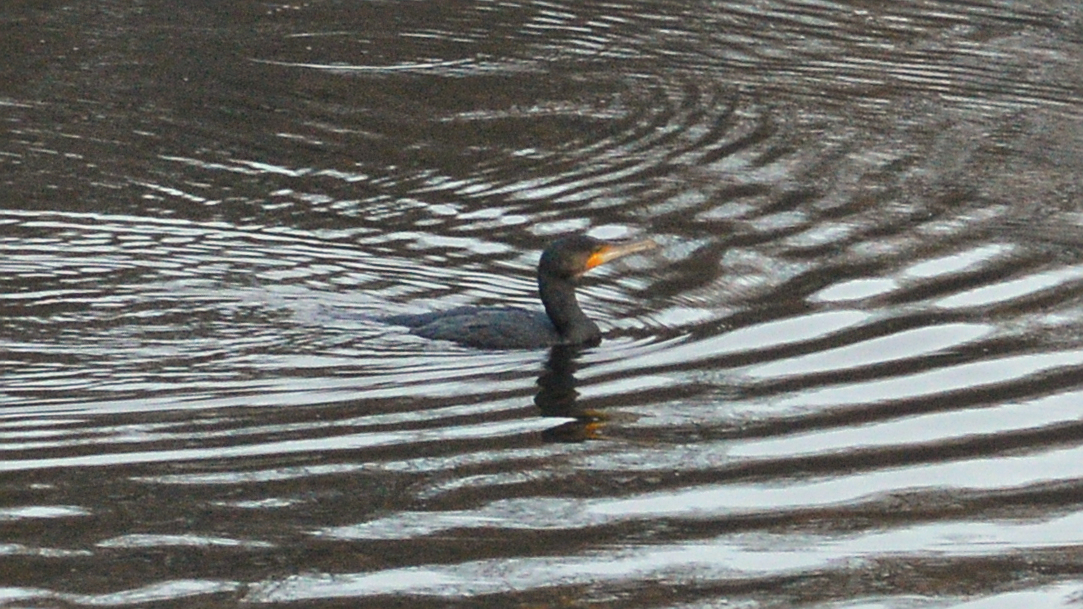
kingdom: Animalia
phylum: Chordata
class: Aves
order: Suliformes
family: Phalacrocoracidae
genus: Phalacrocorax
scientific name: Phalacrocorax carbo
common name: Great cormorant
